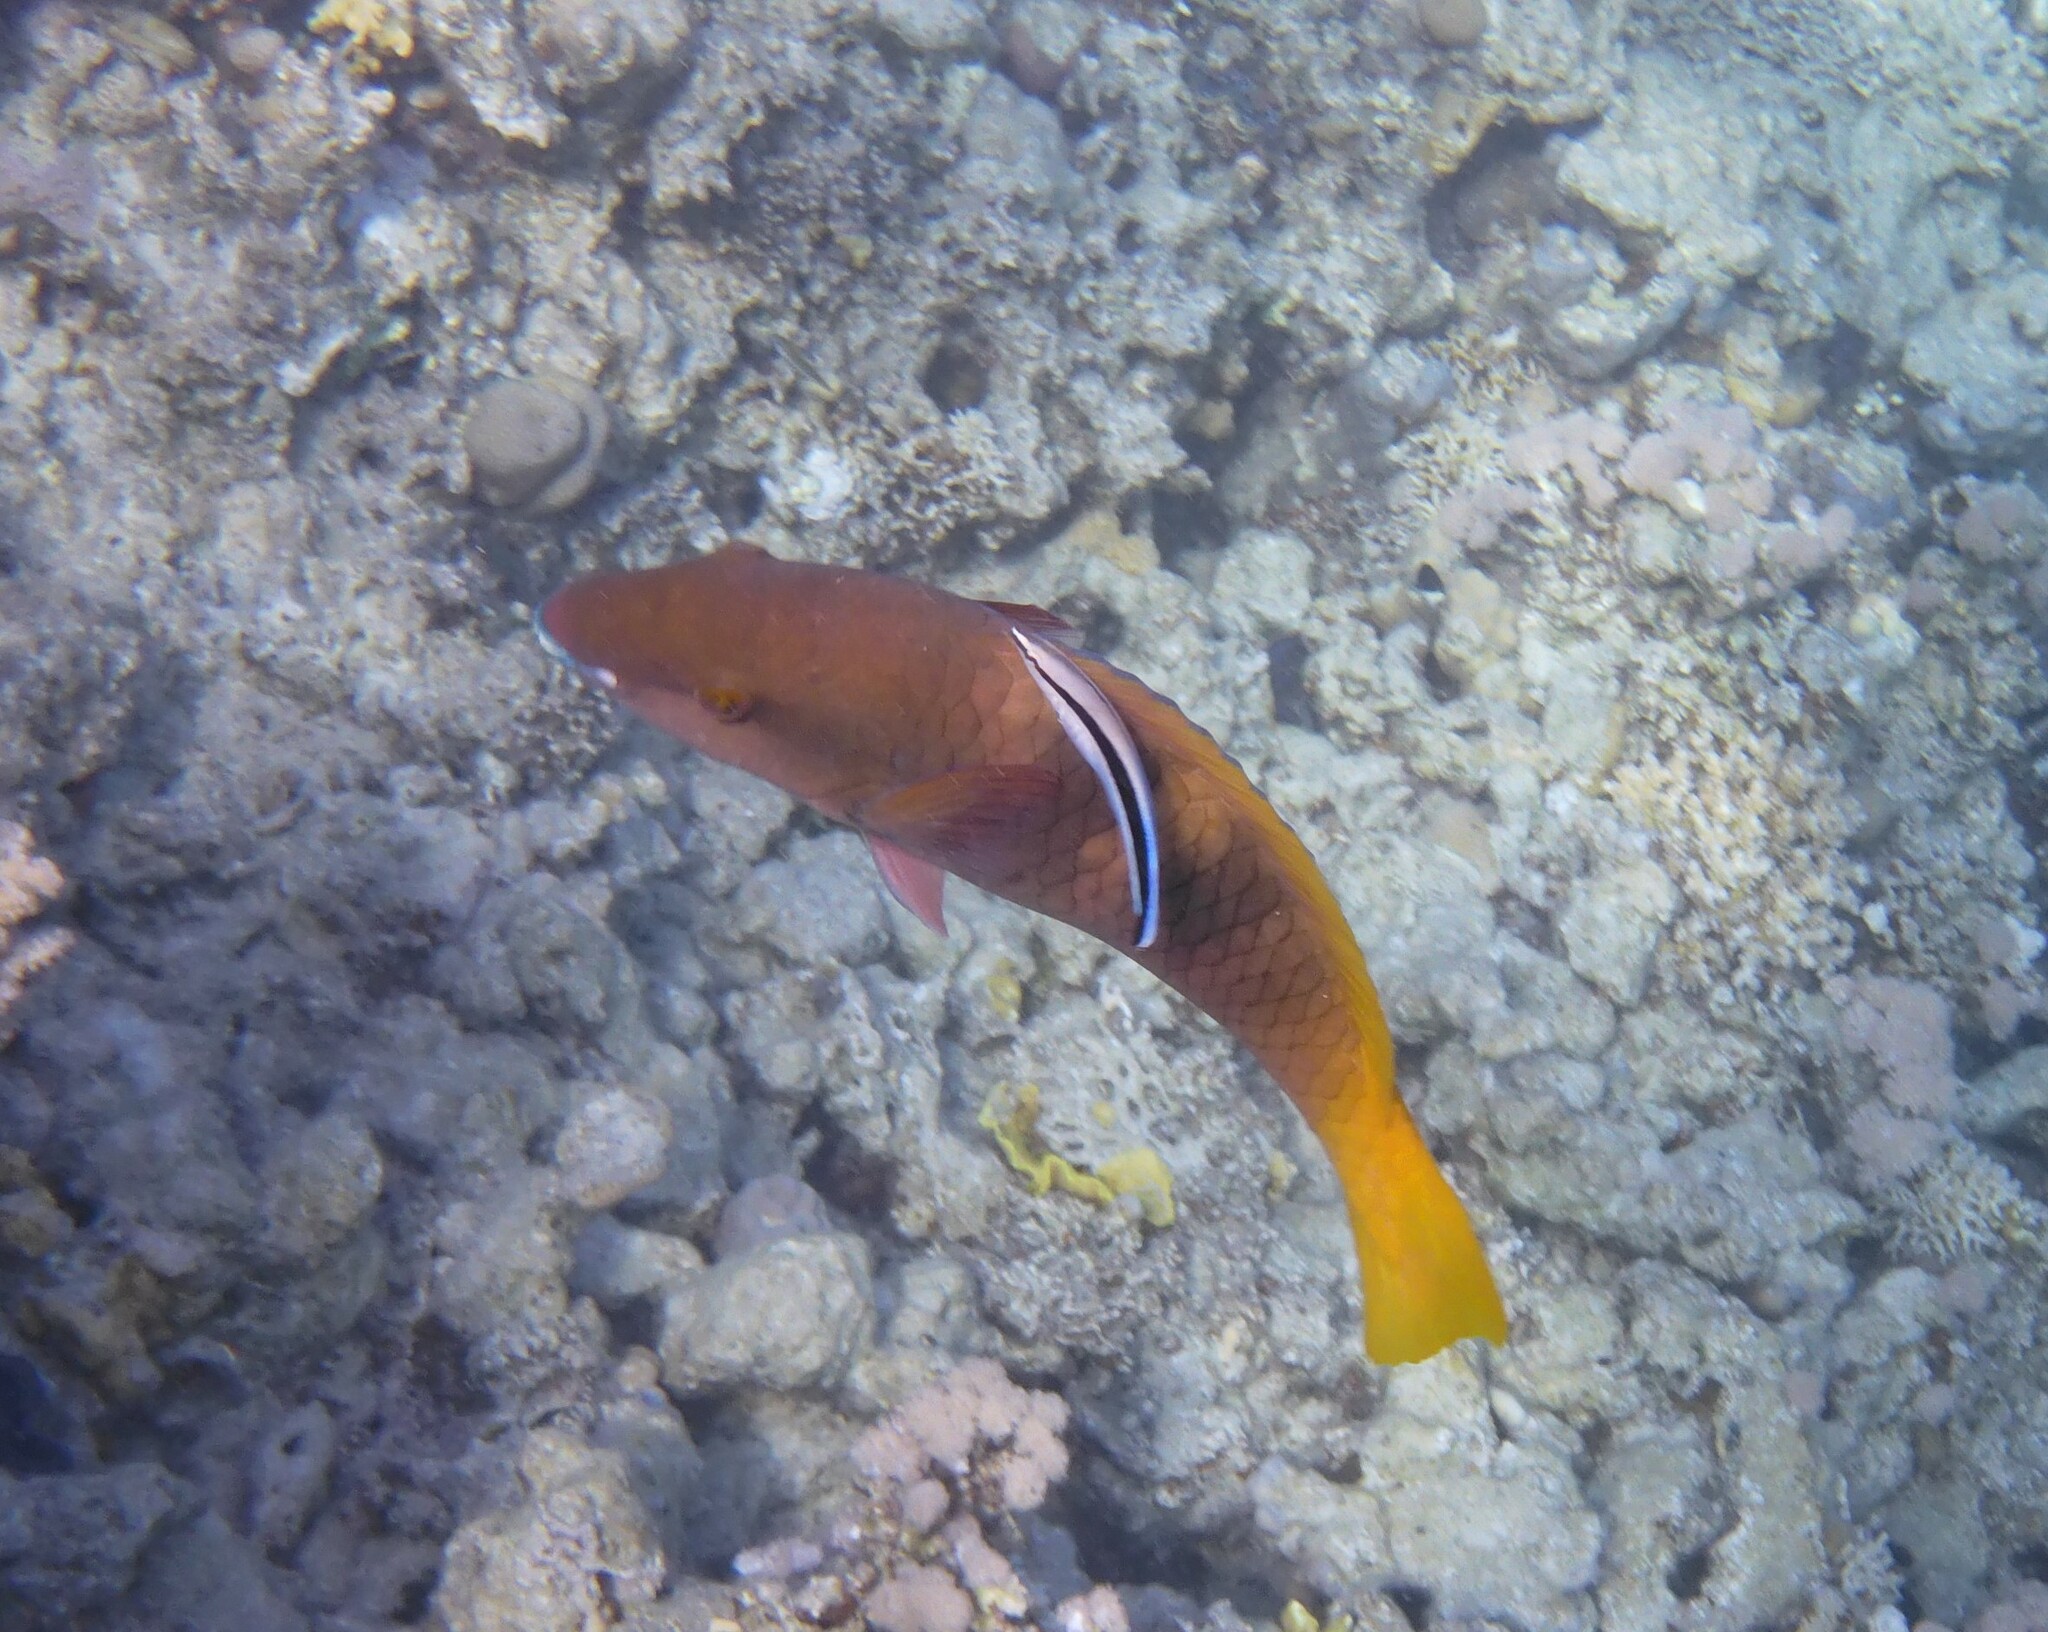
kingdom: Animalia
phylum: Chordata
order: Perciformes
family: Scaridae
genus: Scarus
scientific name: Scarus ferrugineus
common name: Rusty parrotfish
